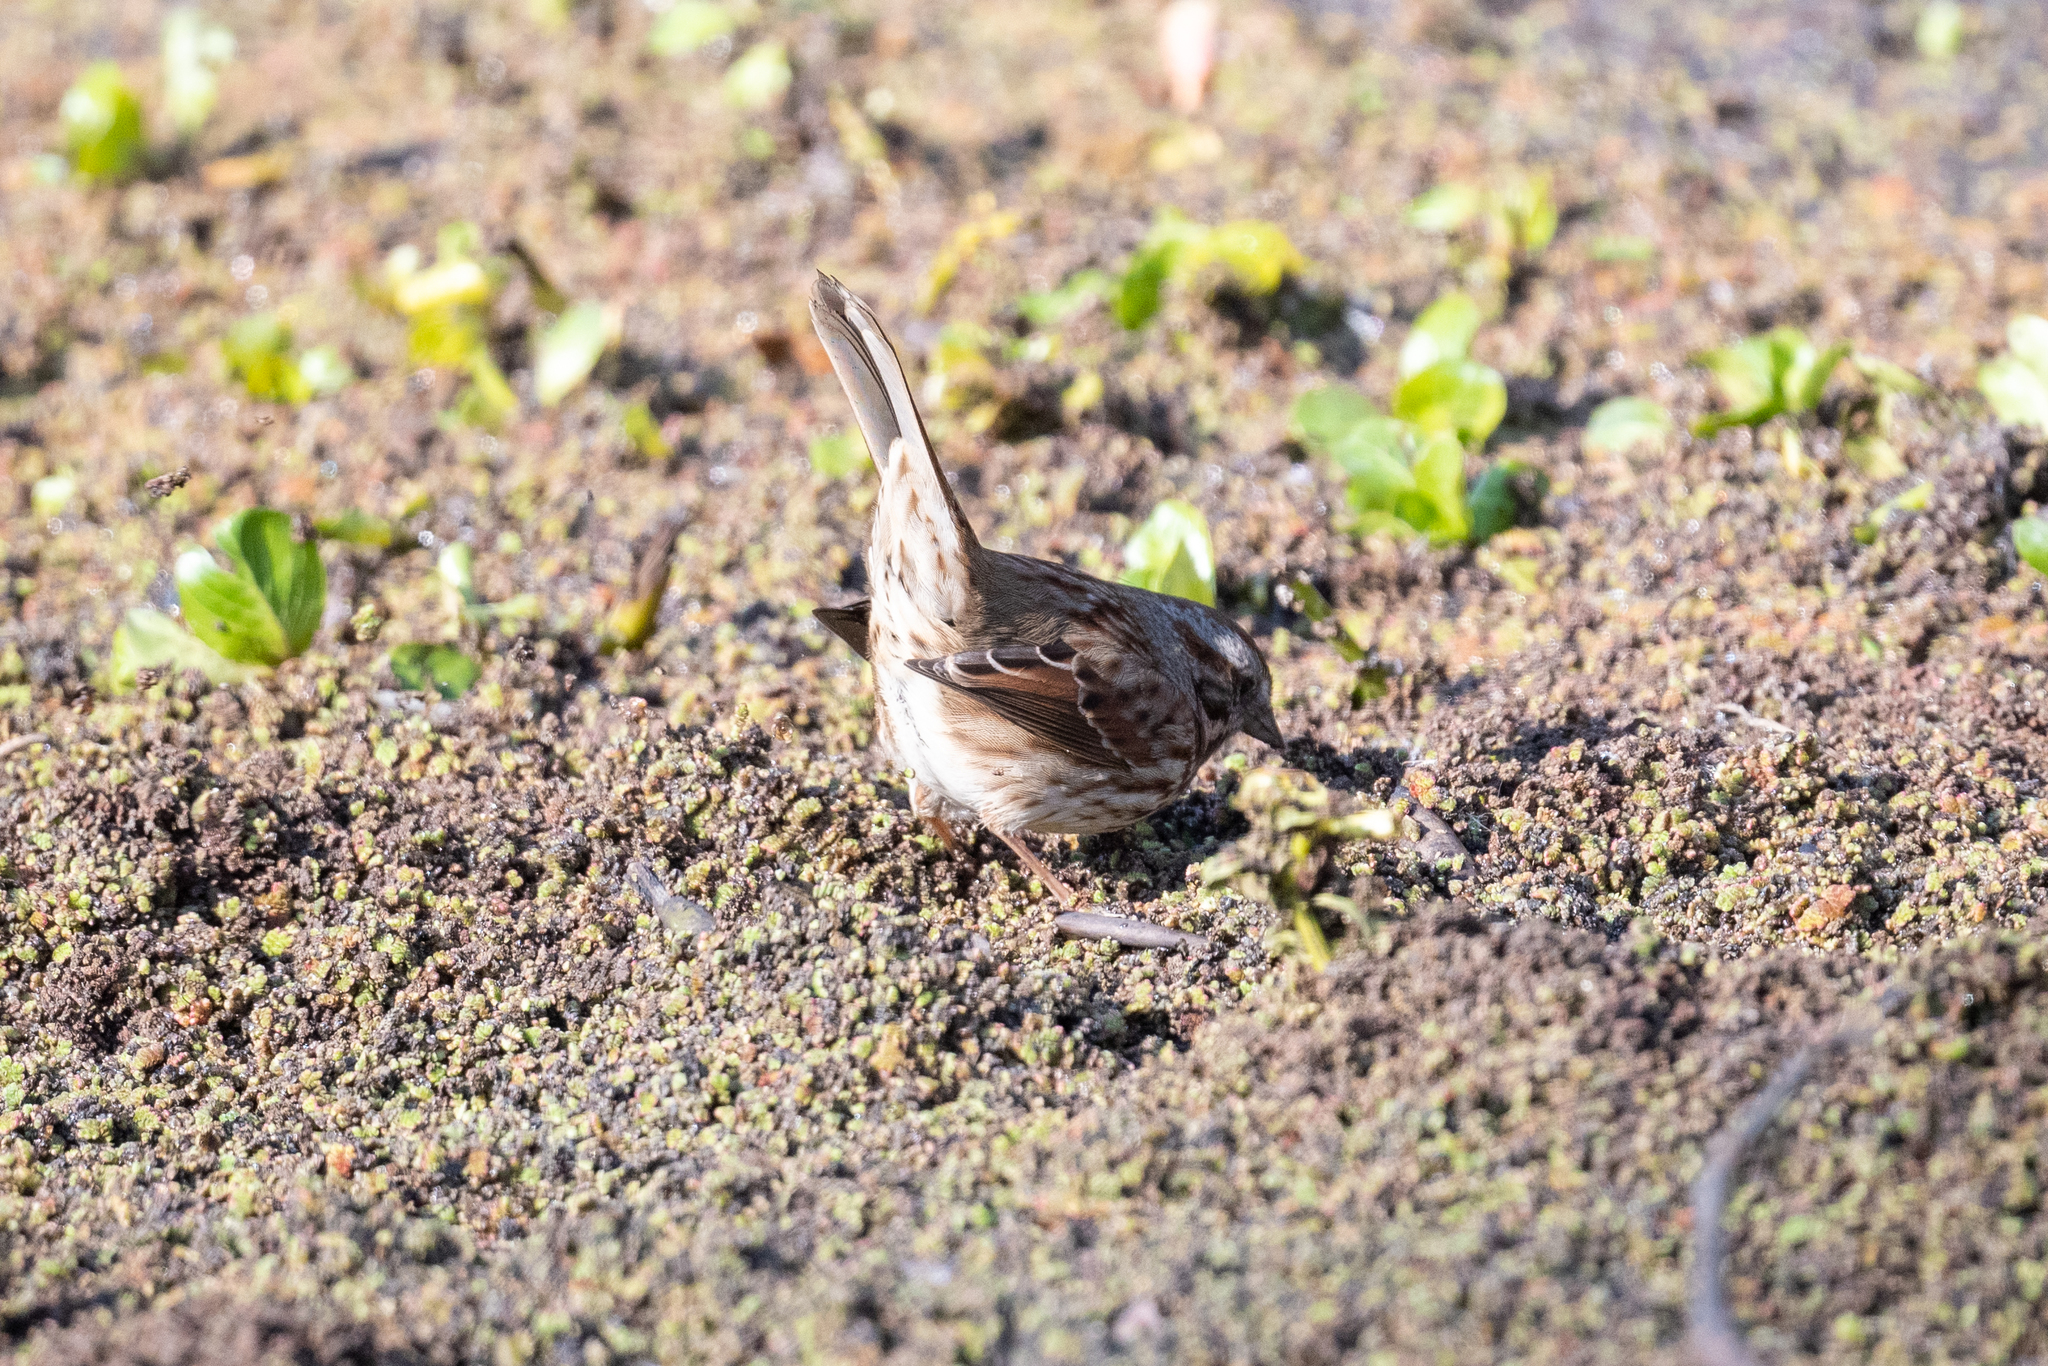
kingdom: Animalia
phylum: Chordata
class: Aves
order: Passeriformes
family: Passerellidae
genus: Melospiza
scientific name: Melospiza melodia
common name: Song sparrow
